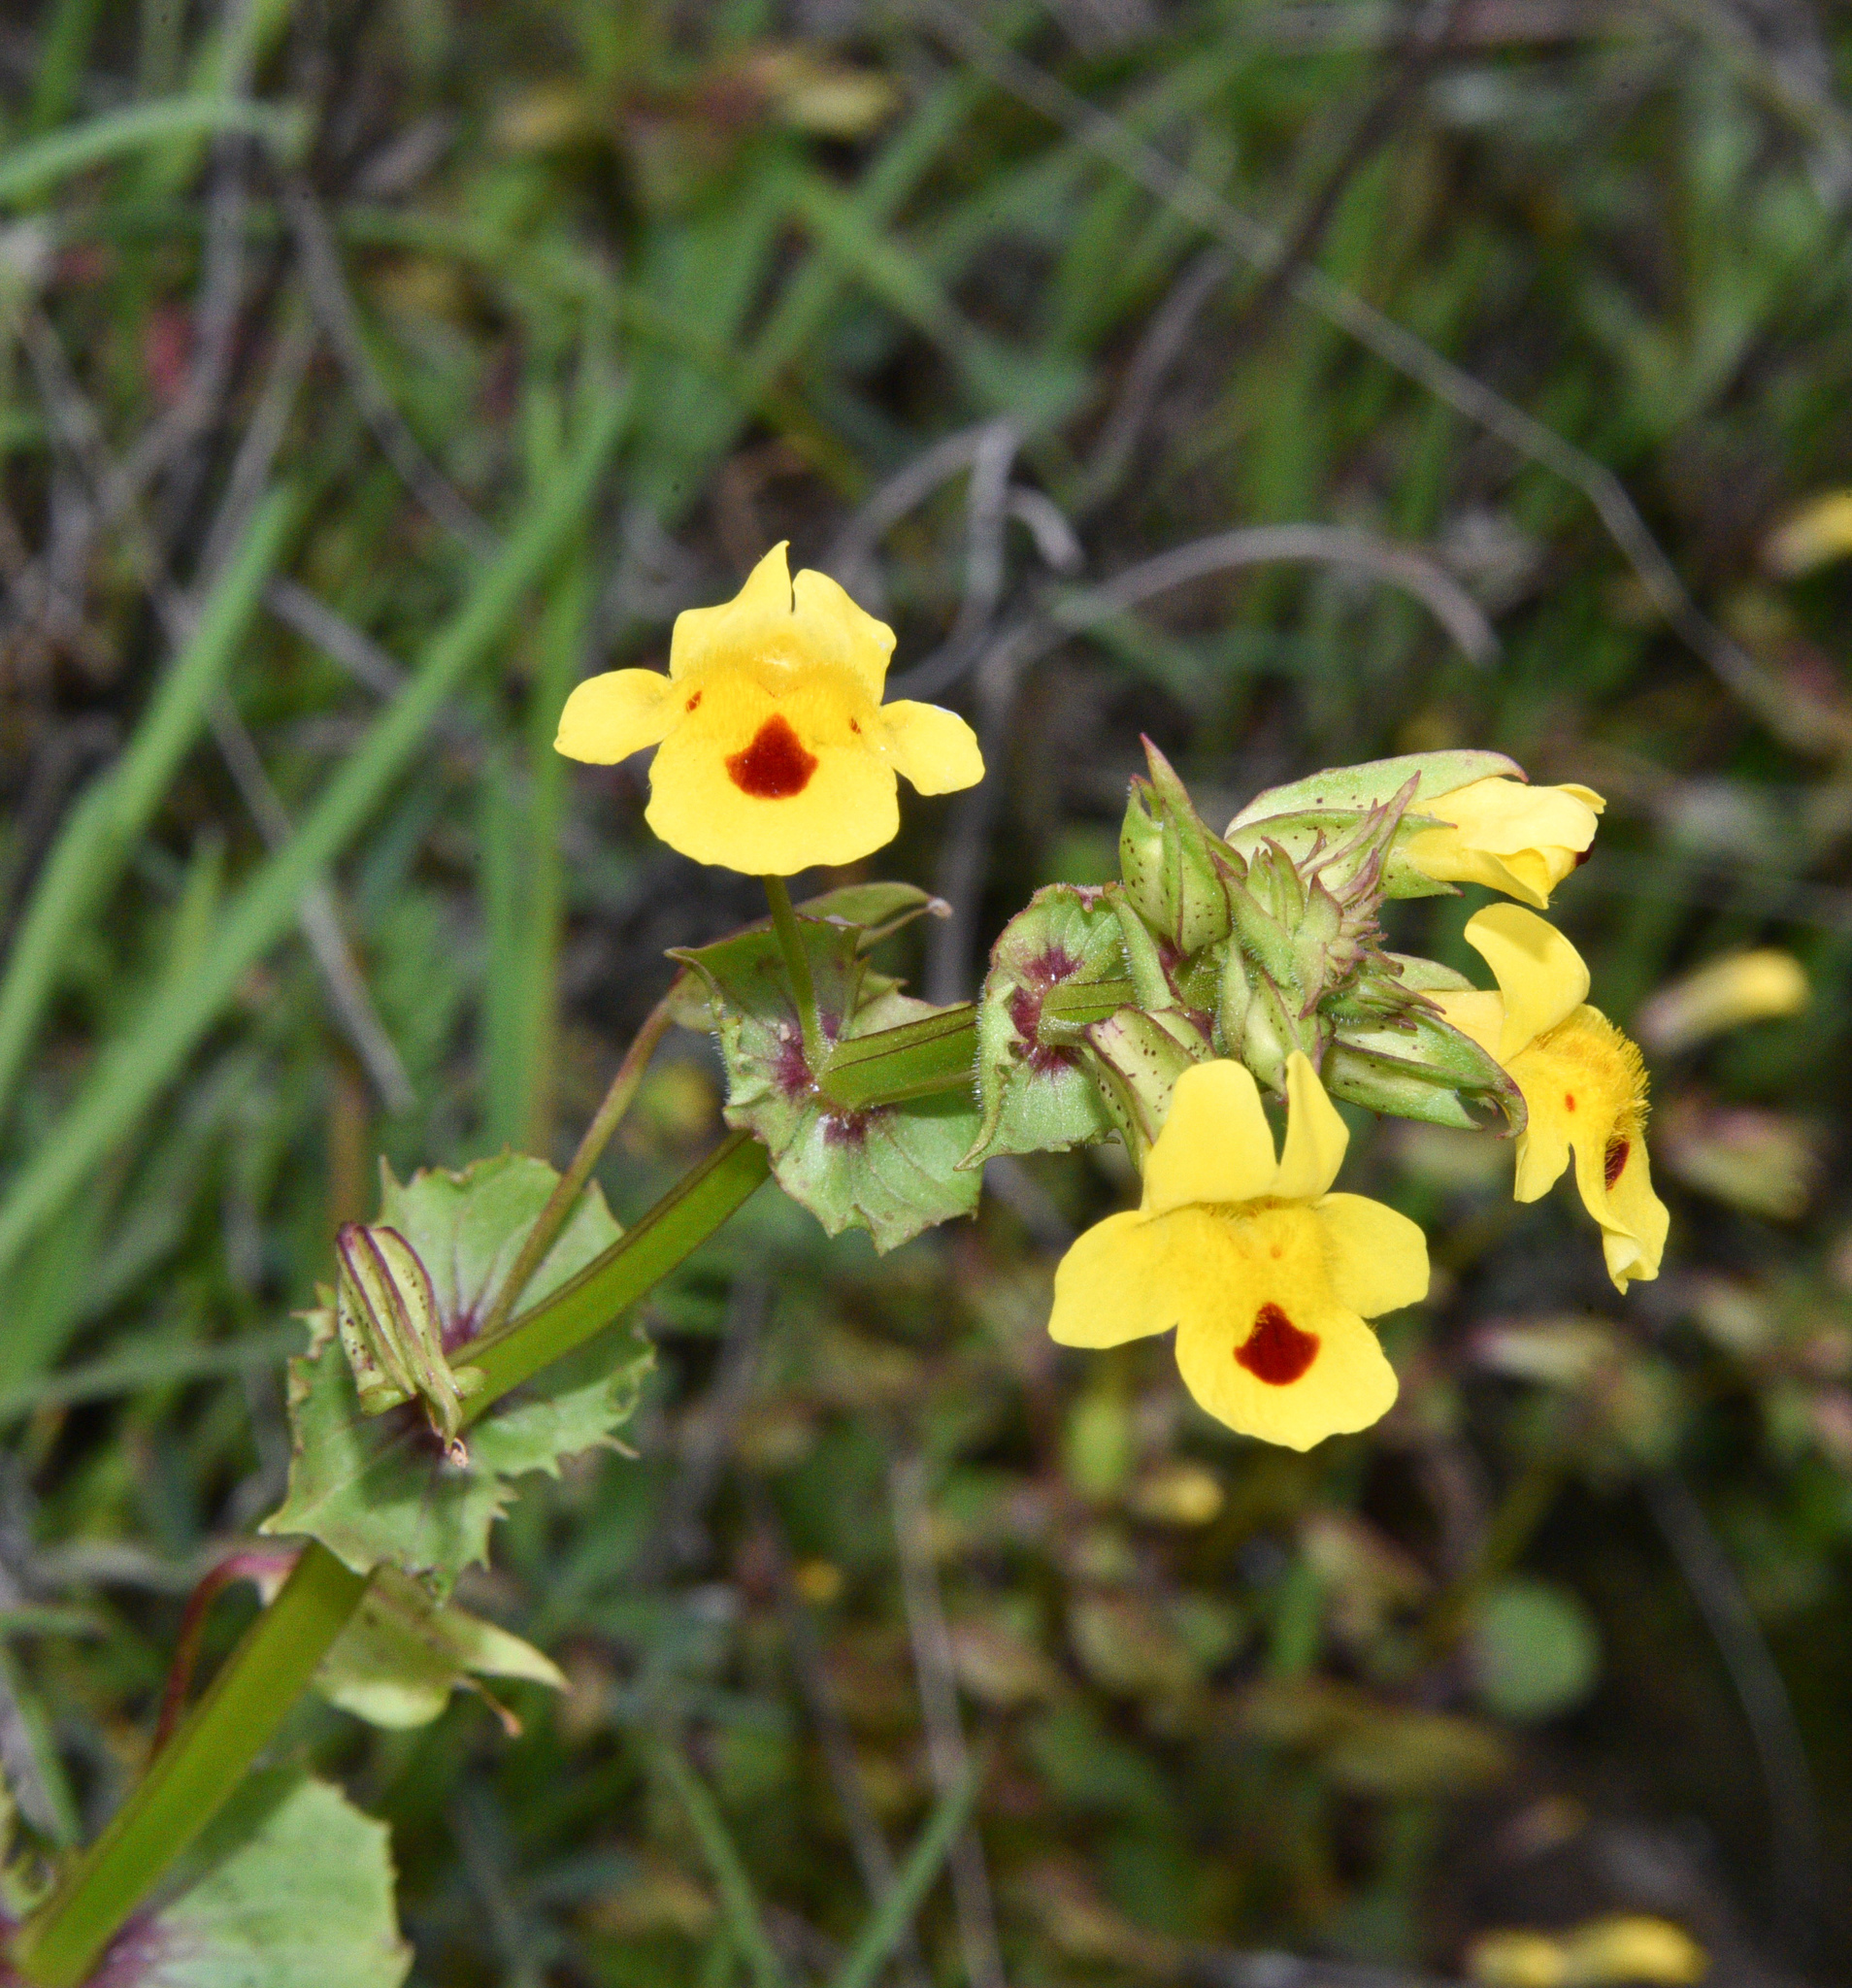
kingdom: Plantae
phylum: Tracheophyta
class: Magnoliopsida
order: Lamiales
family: Phrymaceae
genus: Erythranthe
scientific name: Erythranthe nasuta
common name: Sooke monkeyflower
